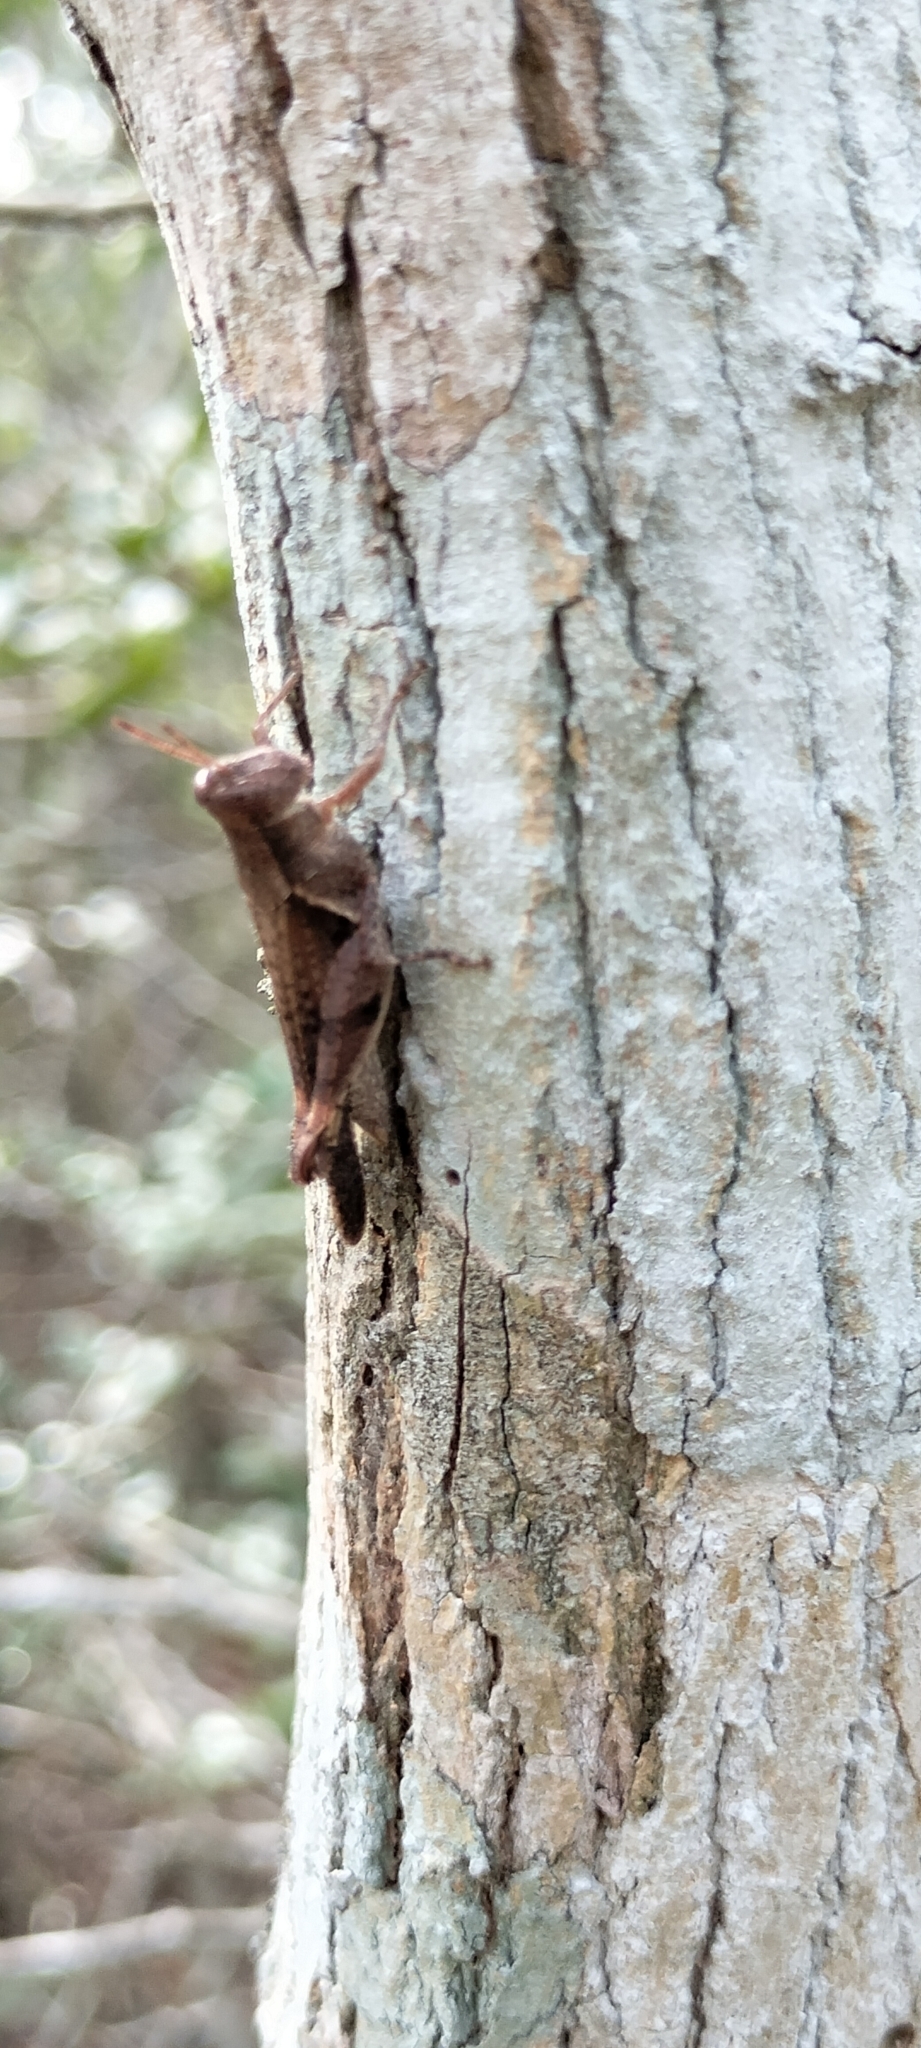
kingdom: Animalia
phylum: Arthropoda
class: Insecta
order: Orthoptera
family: Acrididae
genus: Abracris
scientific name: Abracris dilecta
